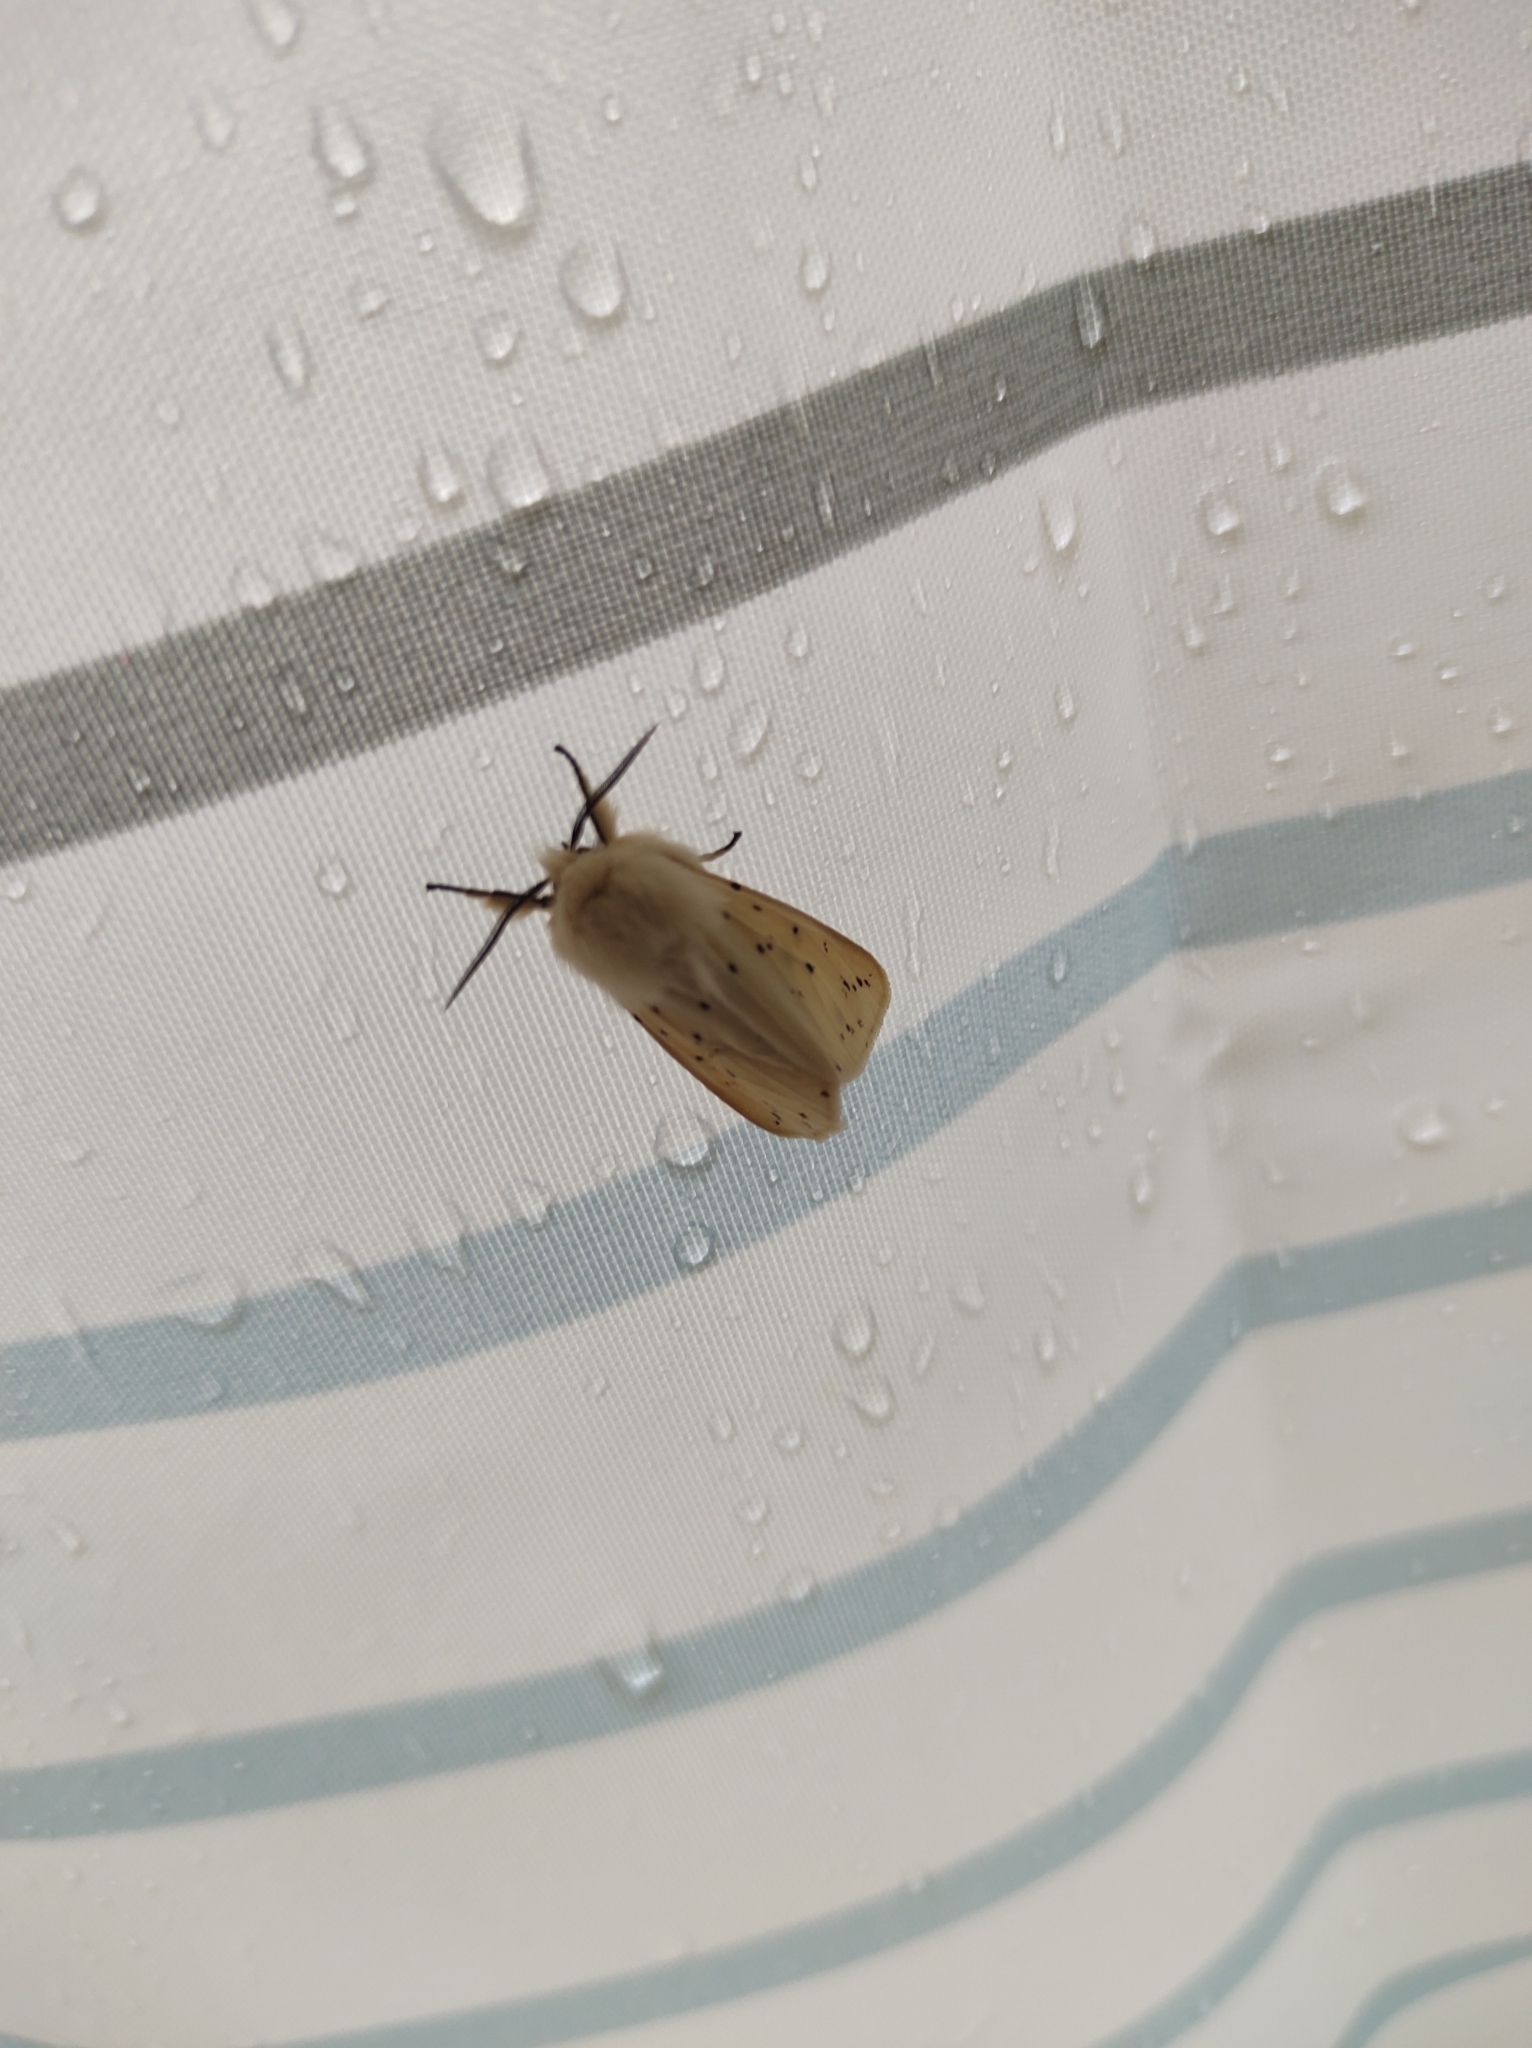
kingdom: Animalia
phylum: Arthropoda
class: Insecta
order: Lepidoptera
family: Erebidae
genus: Spilosoma
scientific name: Spilosoma lubricipeda
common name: White ermine
